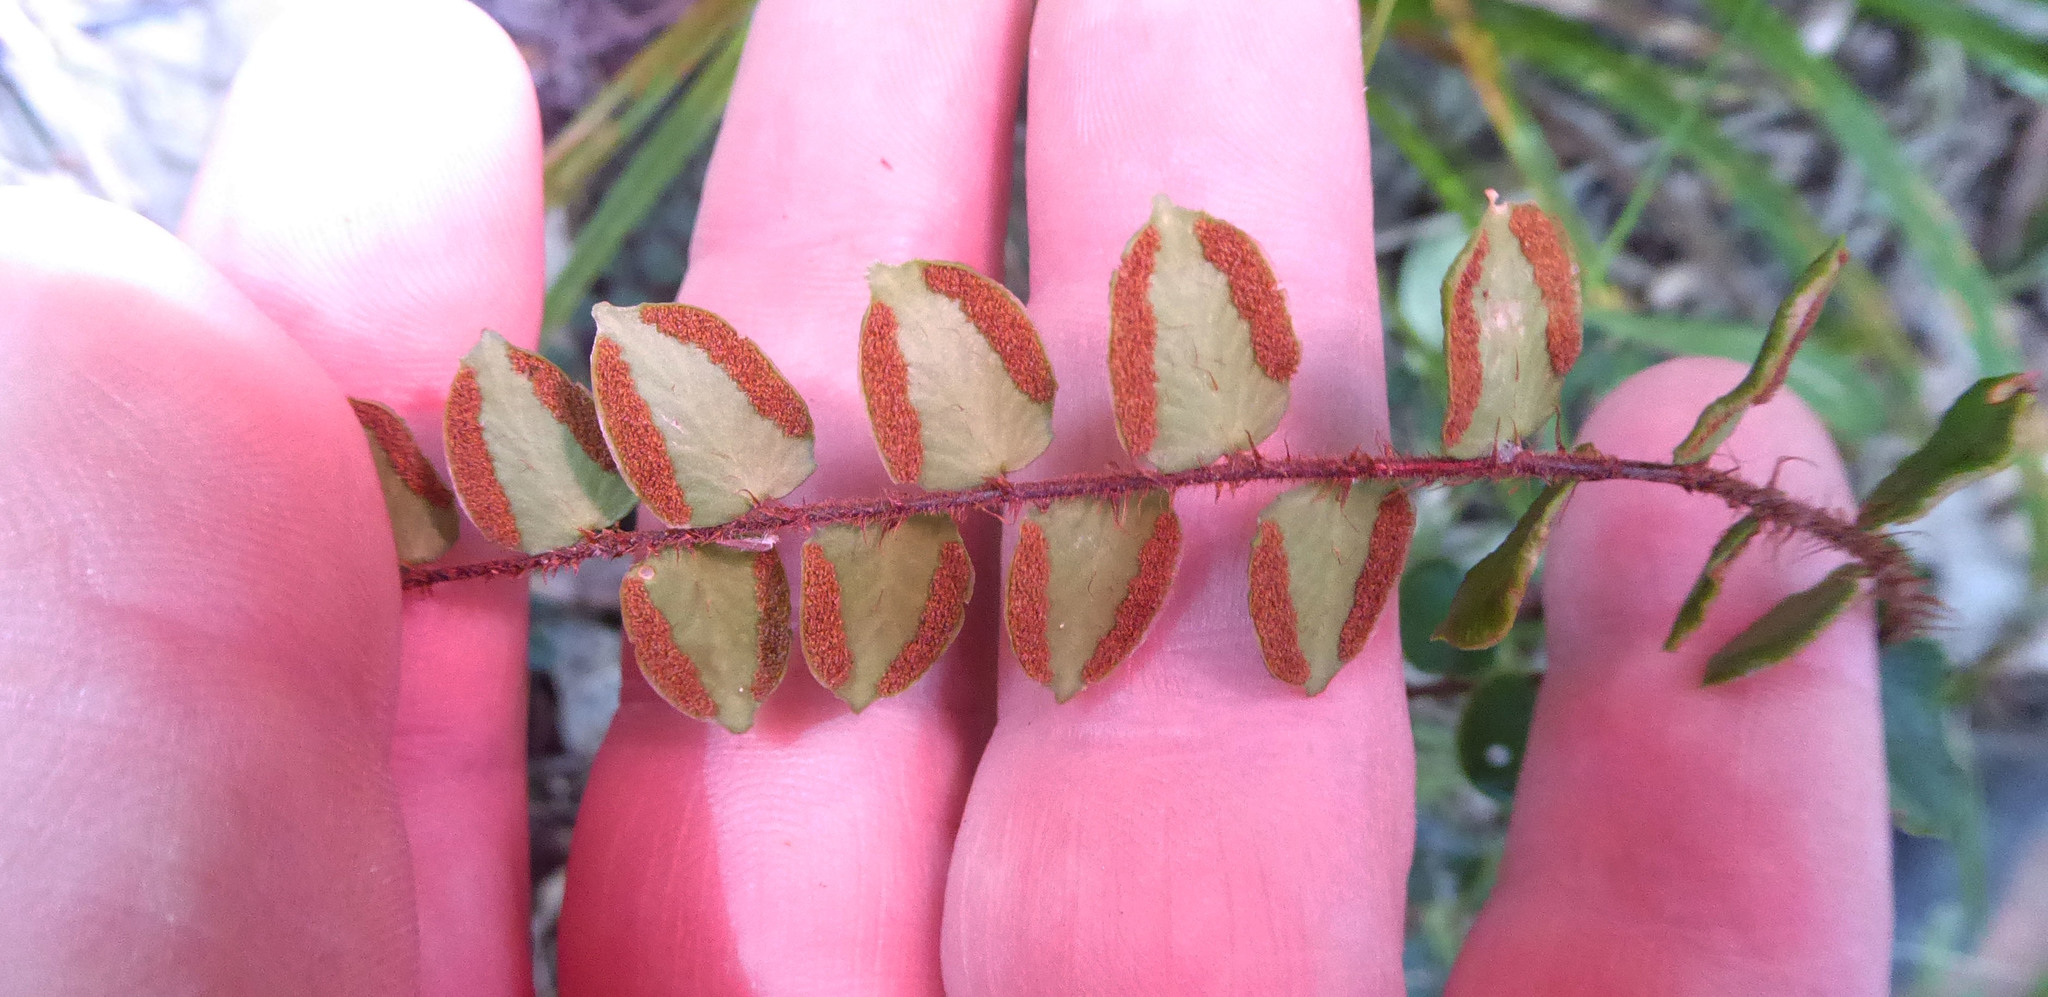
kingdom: Plantae
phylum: Tracheophyta
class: Polypodiopsida
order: Polypodiales
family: Pteridaceae
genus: Pellaea
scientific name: Pellaea rotundifolia
